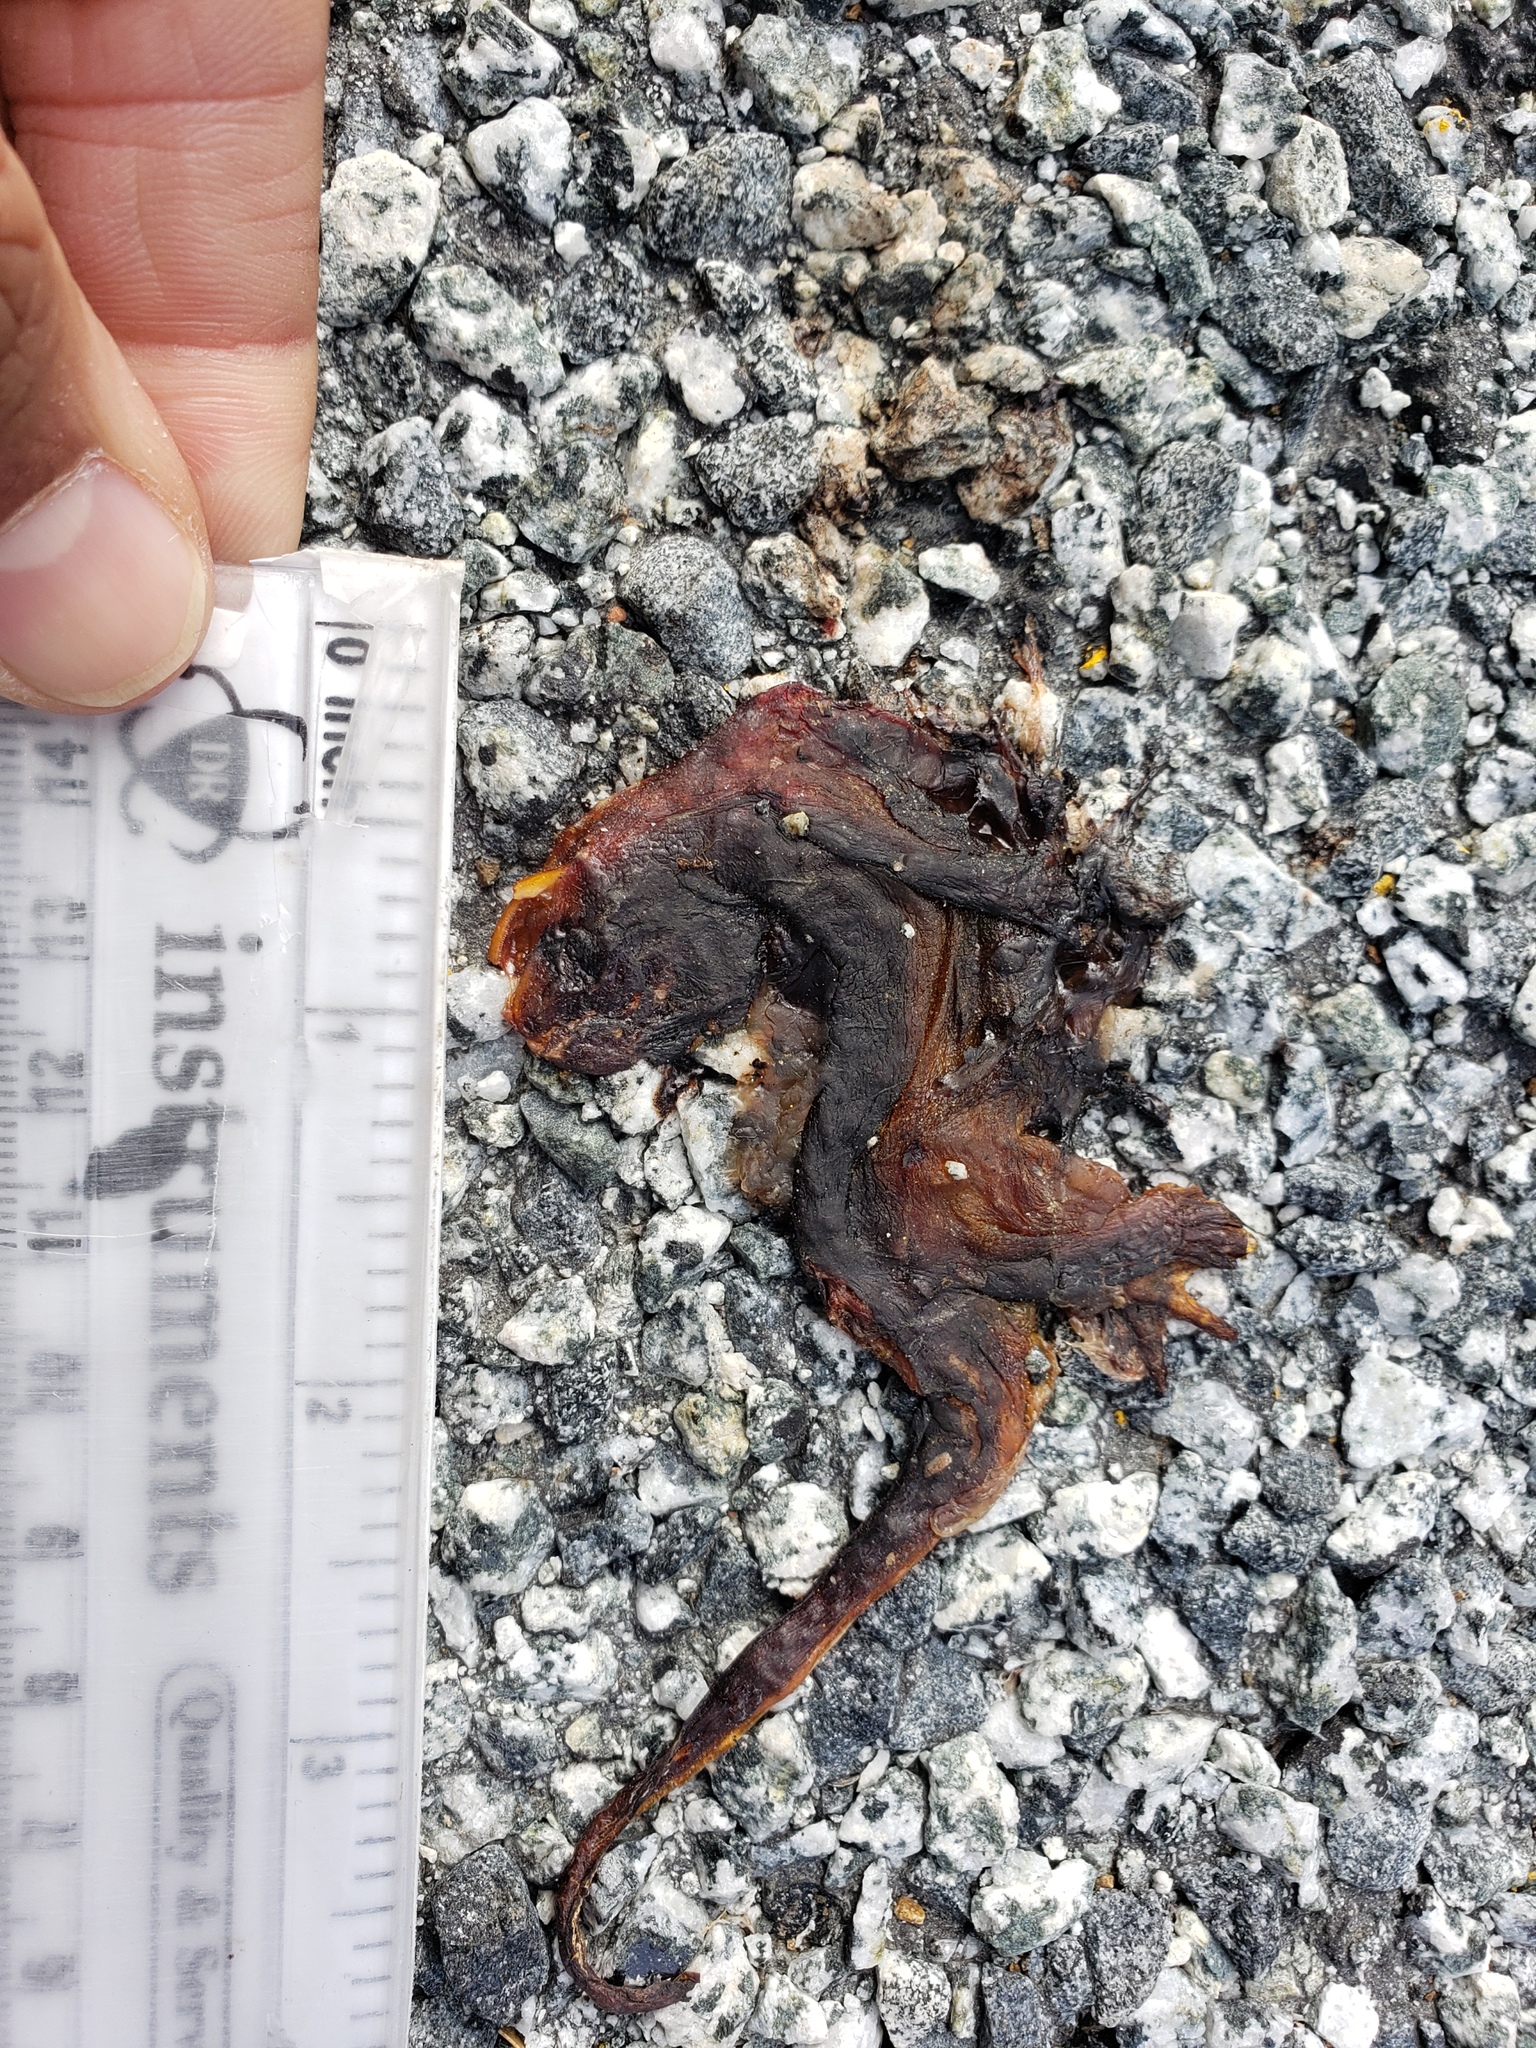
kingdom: Animalia
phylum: Chordata
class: Amphibia
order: Caudata
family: Salamandridae
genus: Taricha
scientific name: Taricha
